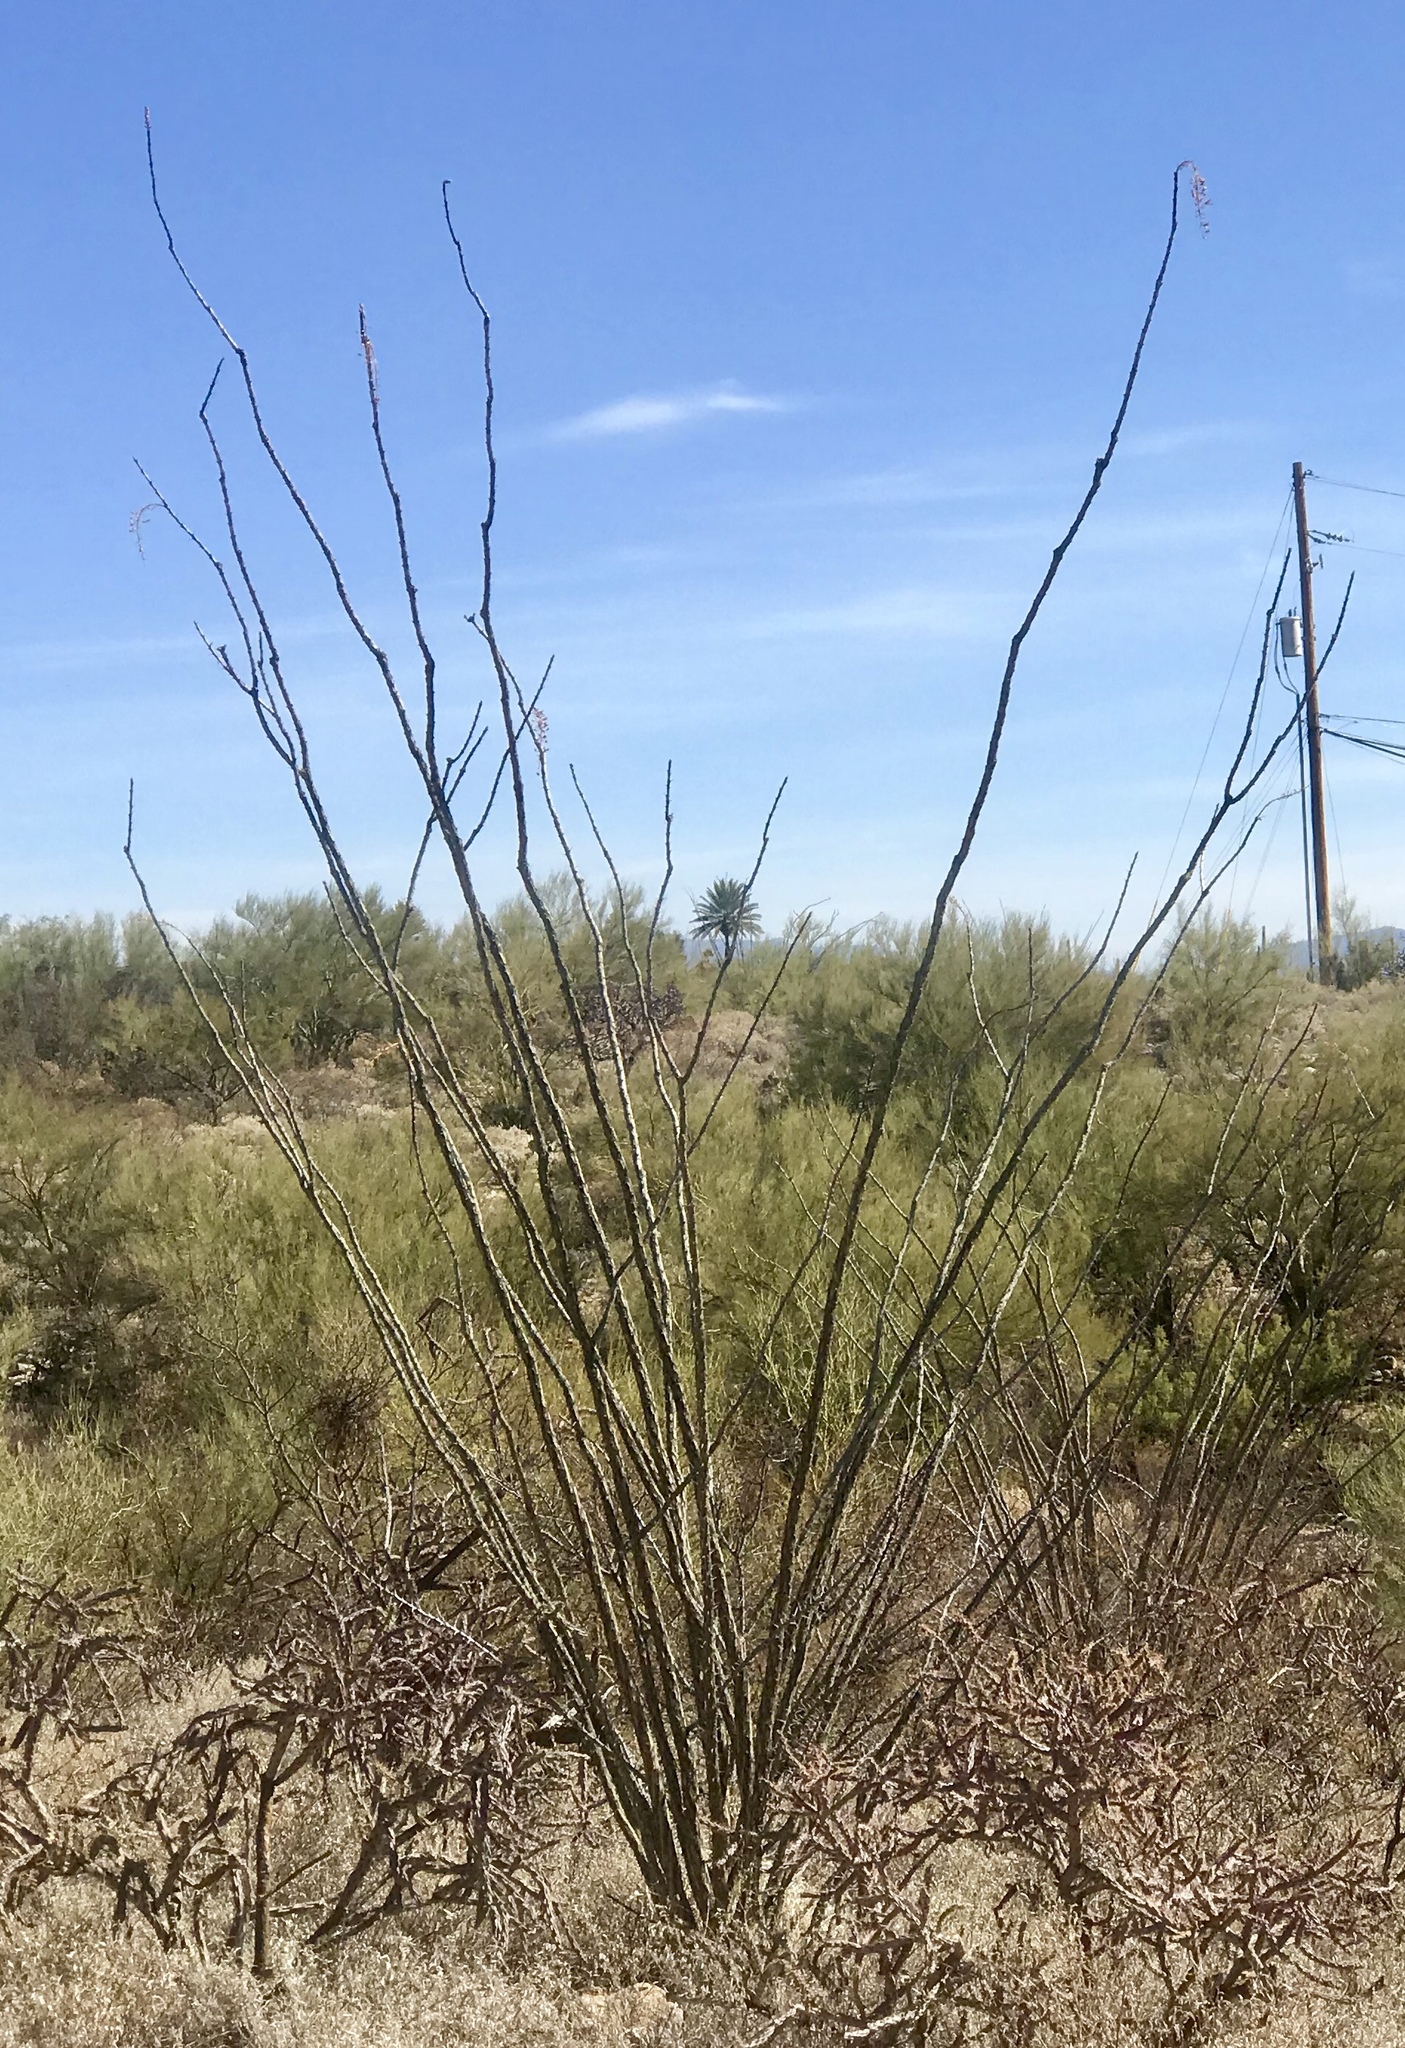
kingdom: Plantae
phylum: Tracheophyta
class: Magnoliopsida
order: Ericales
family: Fouquieriaceae
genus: Fouquieria
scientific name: Fouquieria splendens
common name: Vine-cactus
